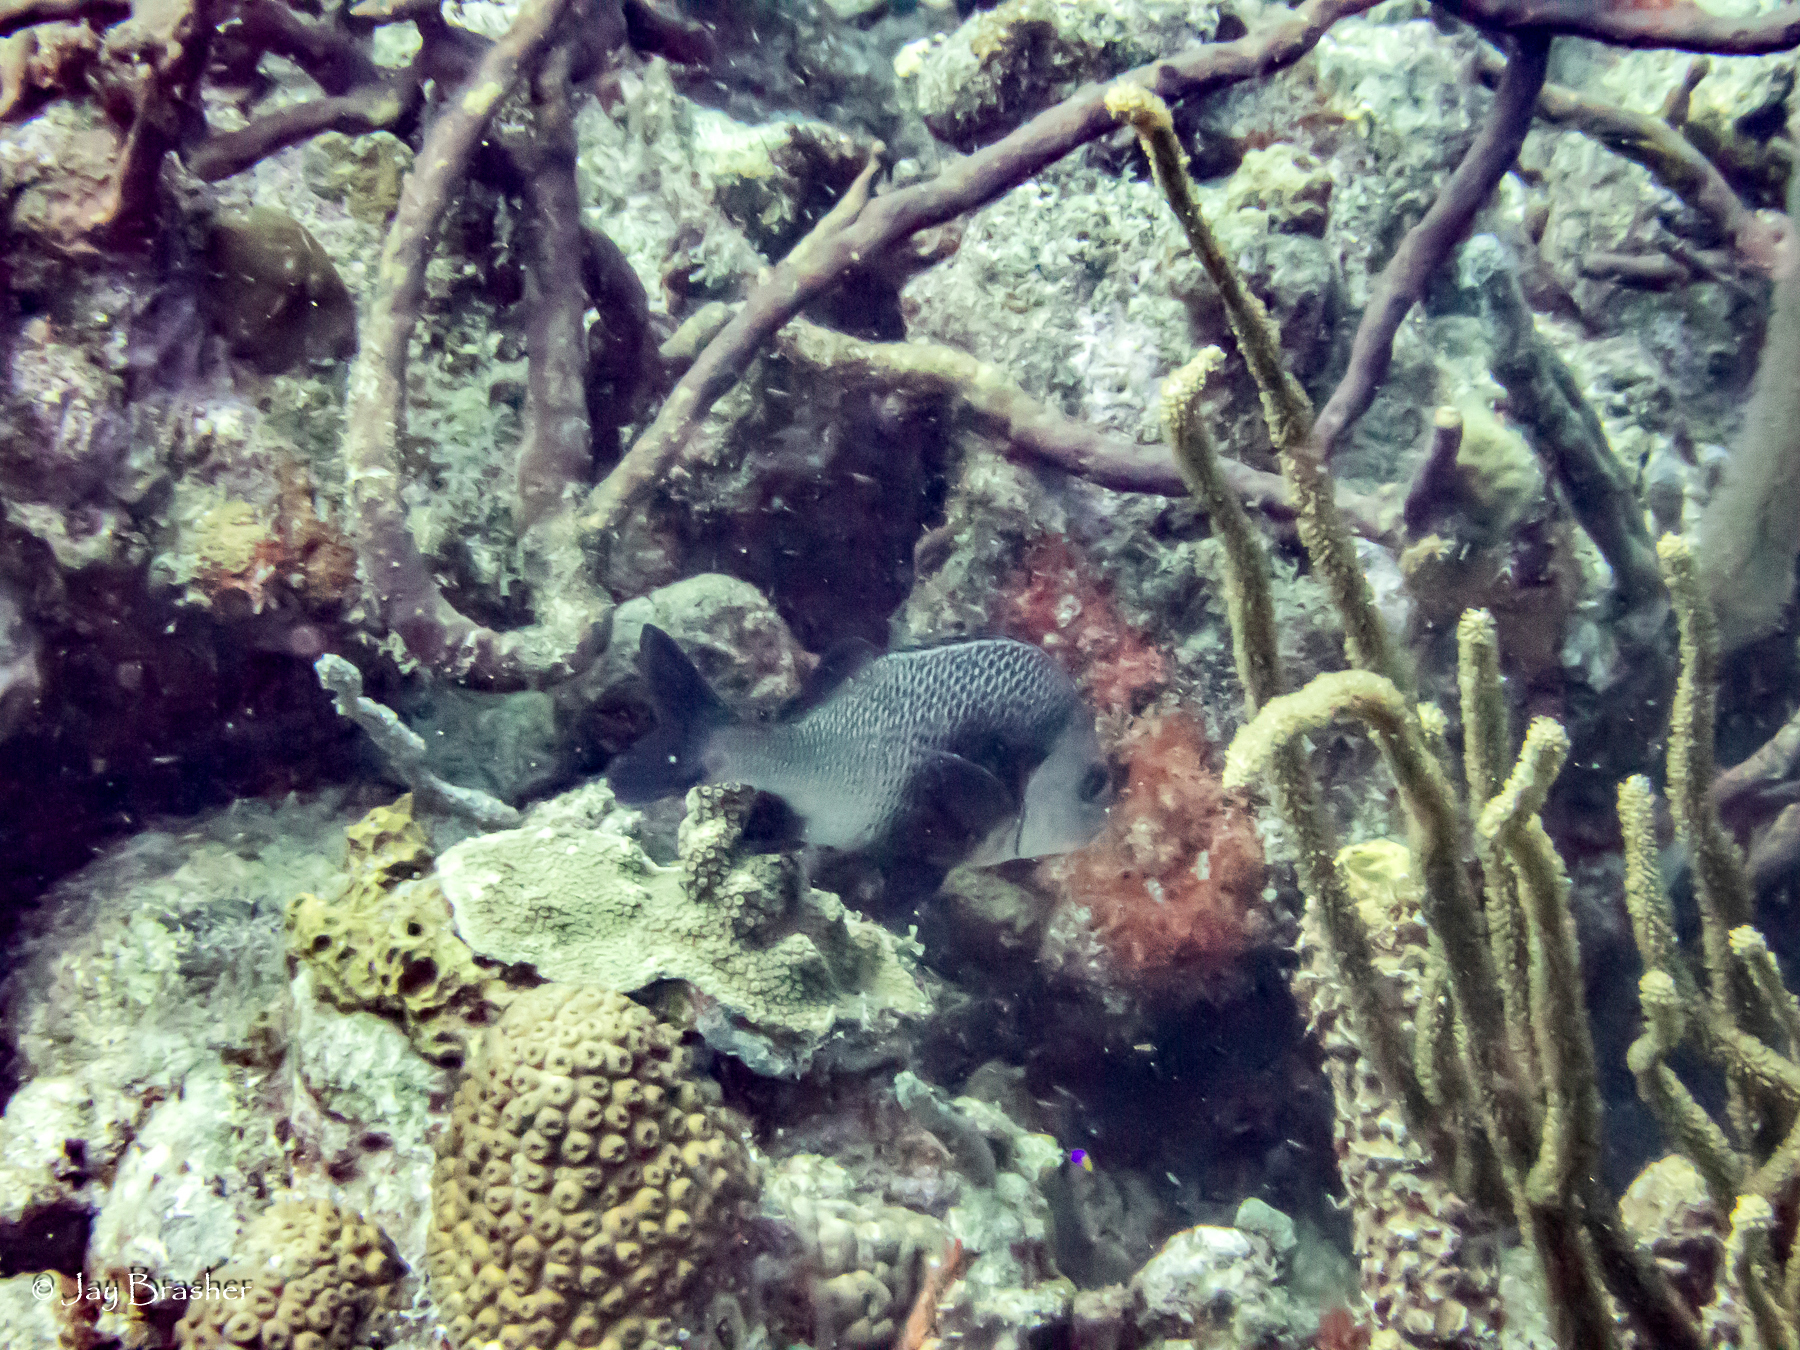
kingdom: Animalia
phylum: Chordata
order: Perciformes
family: Haemulidae
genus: Anisotremus
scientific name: Anisotremus surinamensis
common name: Black margate
